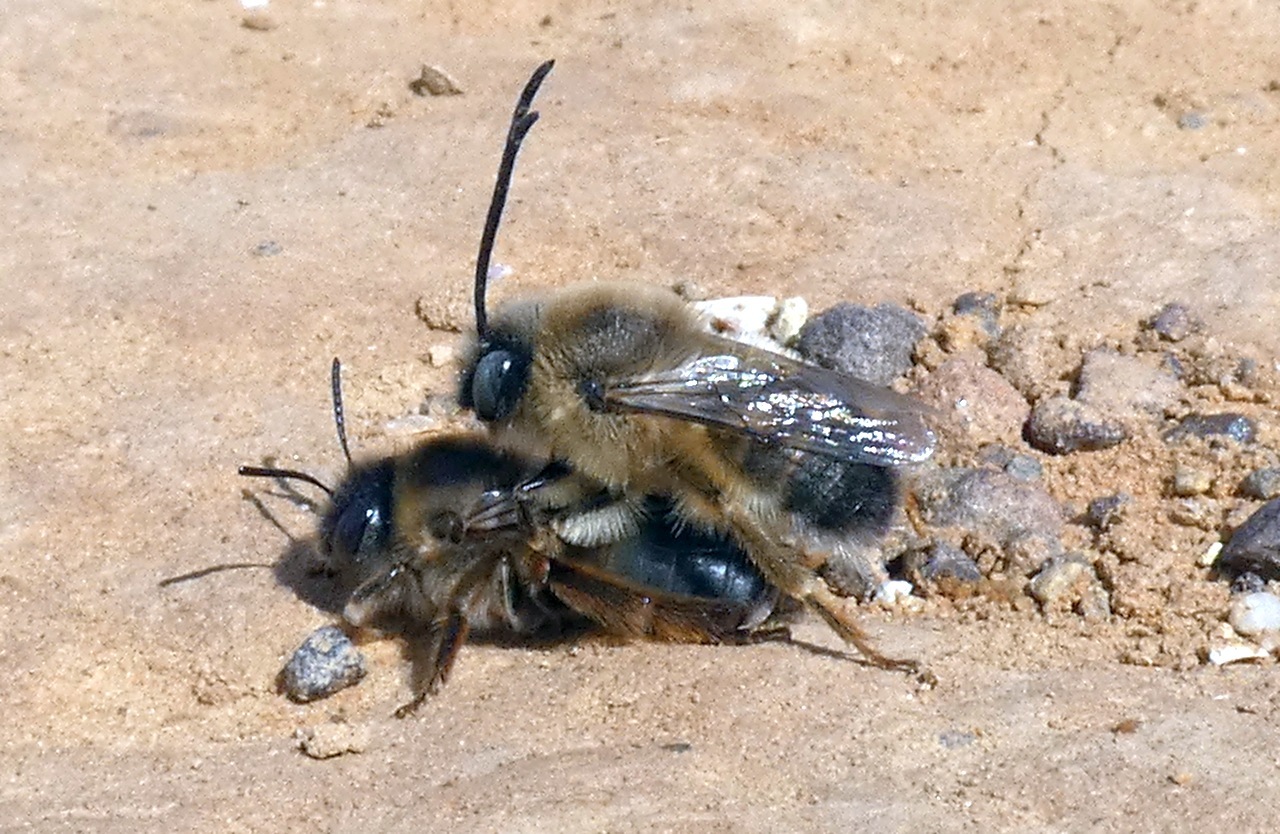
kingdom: Animalia
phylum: Arthropoda
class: Insecta
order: Hymenoptera
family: Apidae
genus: Eucera
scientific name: Eucera nigrilabris
